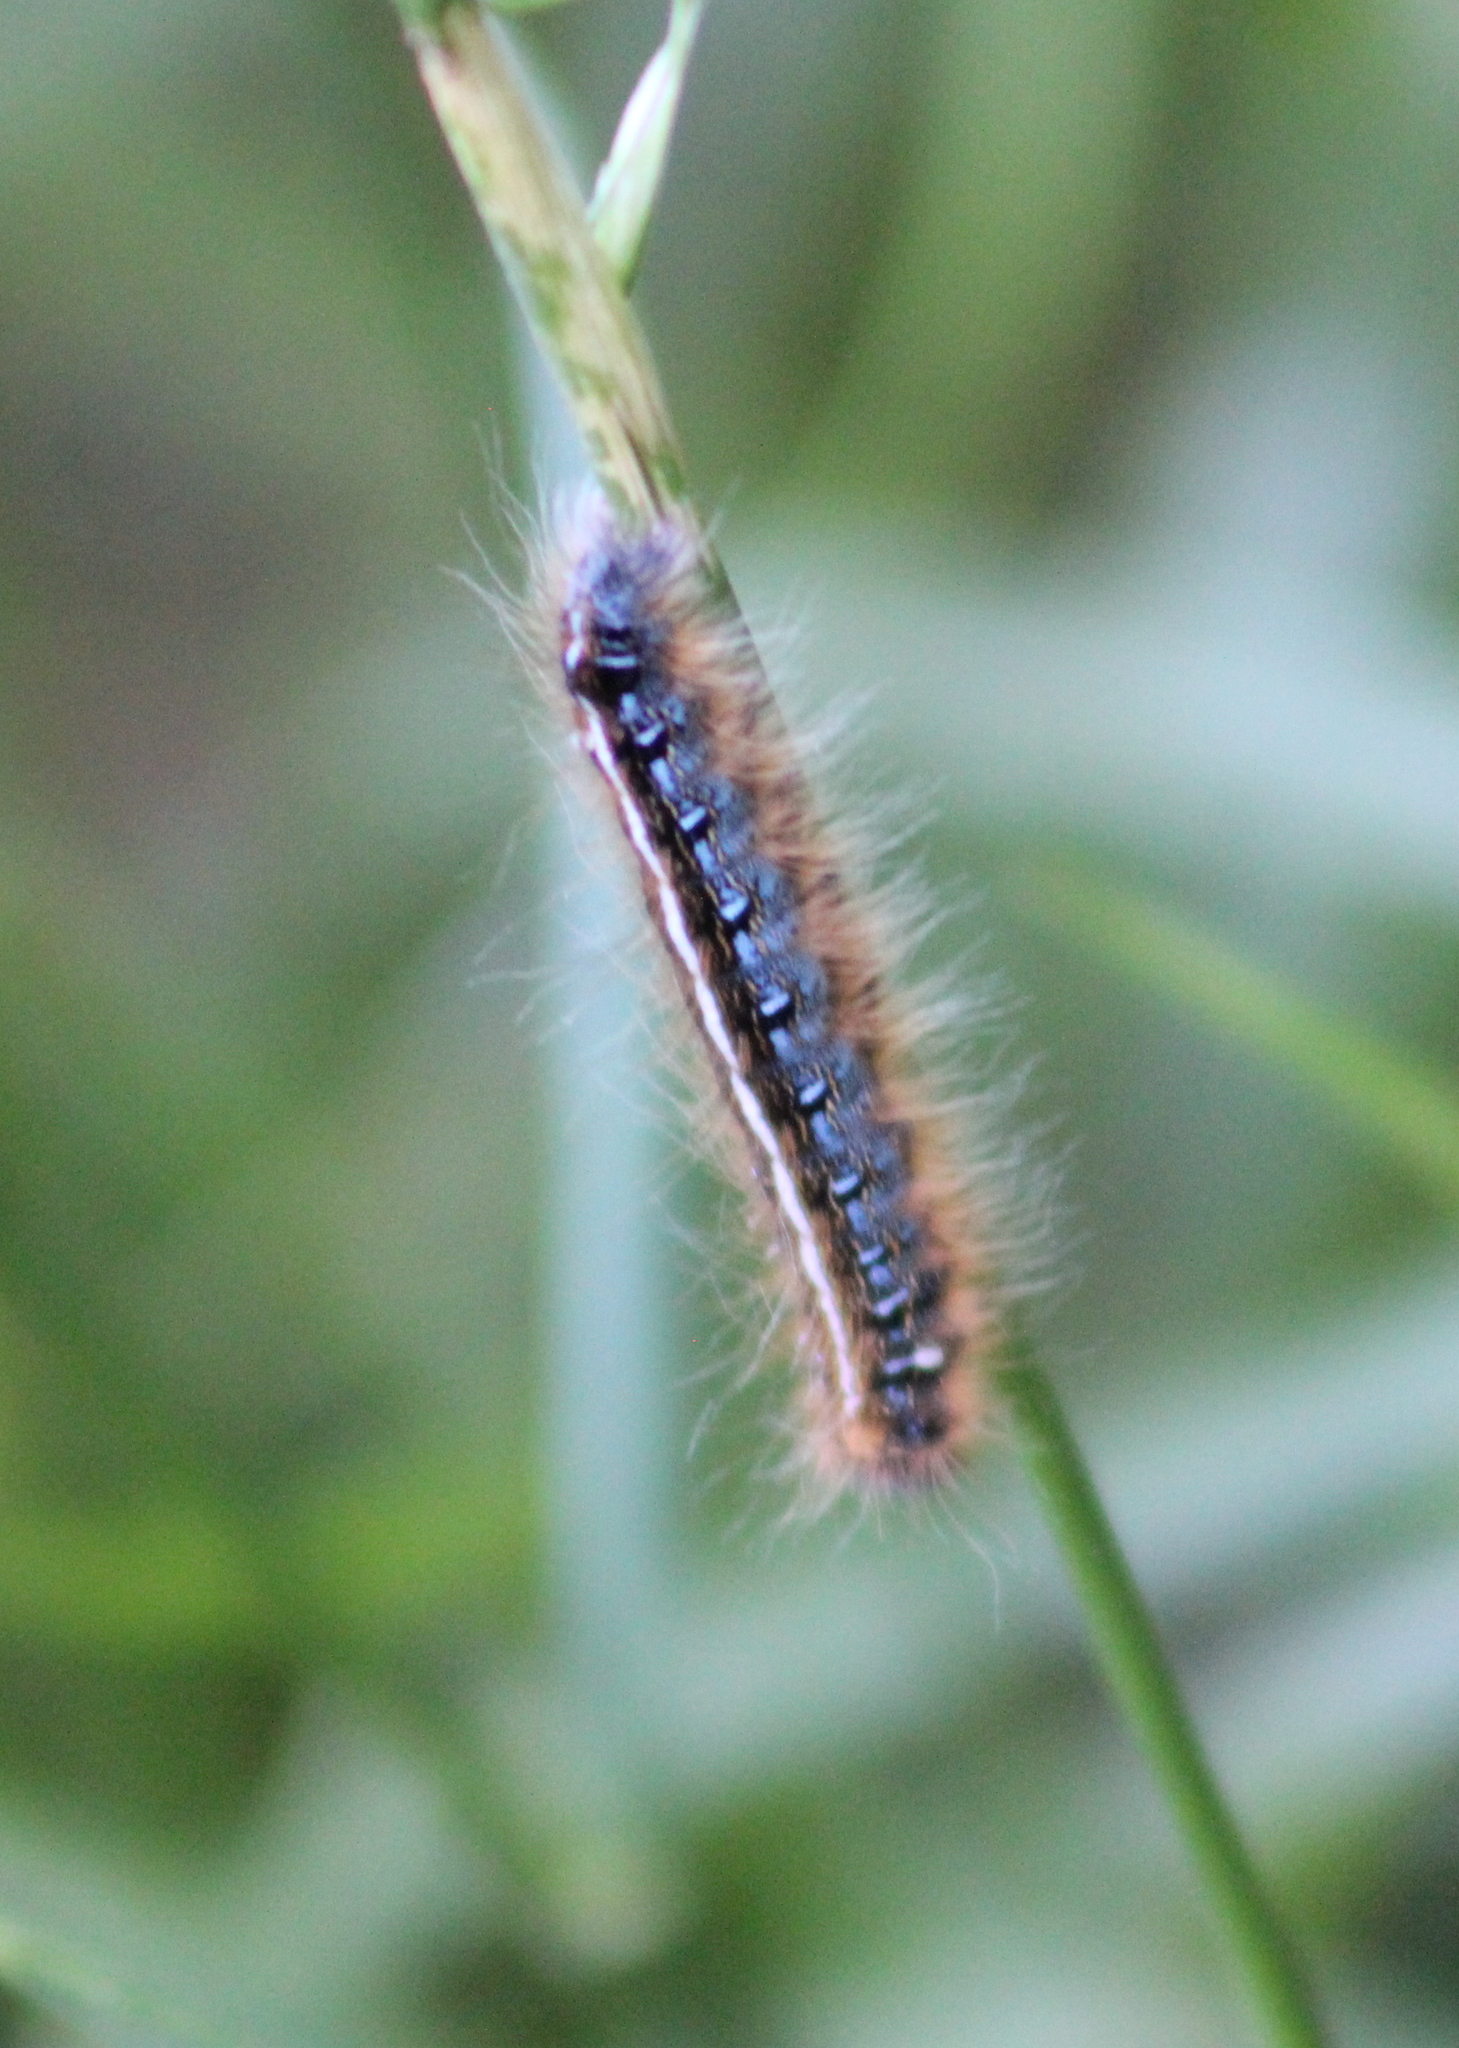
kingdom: Animalia
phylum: Arthropoda
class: Insecta
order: Lepidoptera
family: Lasiocampidae
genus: Malacosoma
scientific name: Malacosoma americana
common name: Eastern tent caterpillar moth
